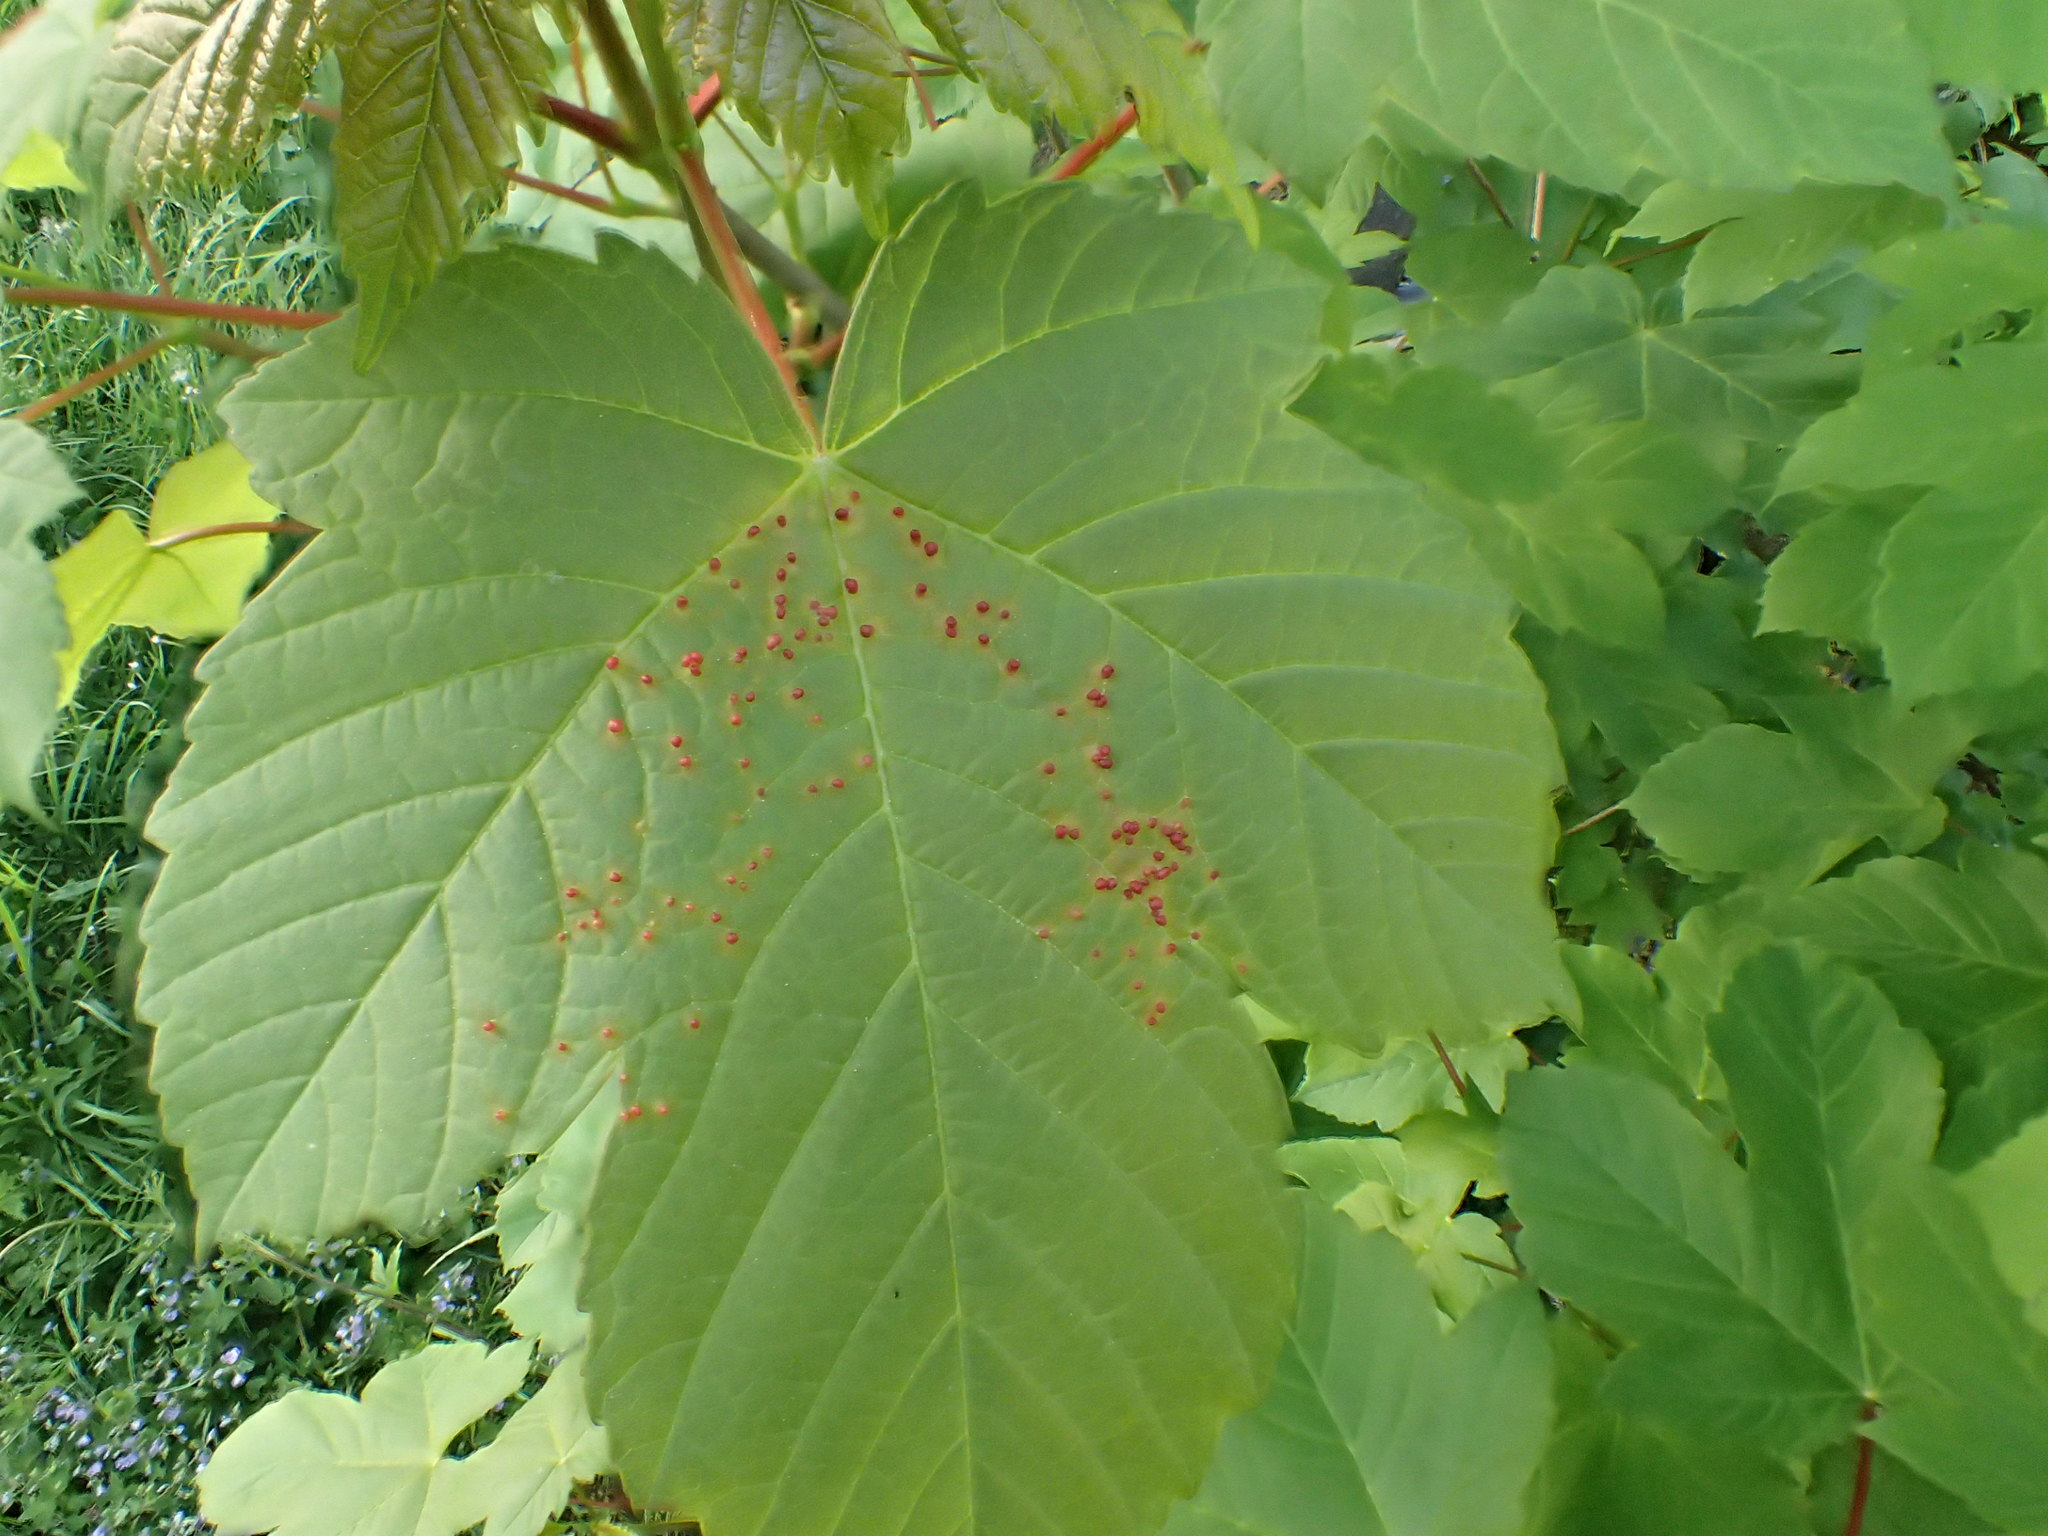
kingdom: Animalia
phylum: Arthropoda
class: Arachnida
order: Trombidiformes
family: Eriophyidae
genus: Aceria
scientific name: Aceria cephaloneus
